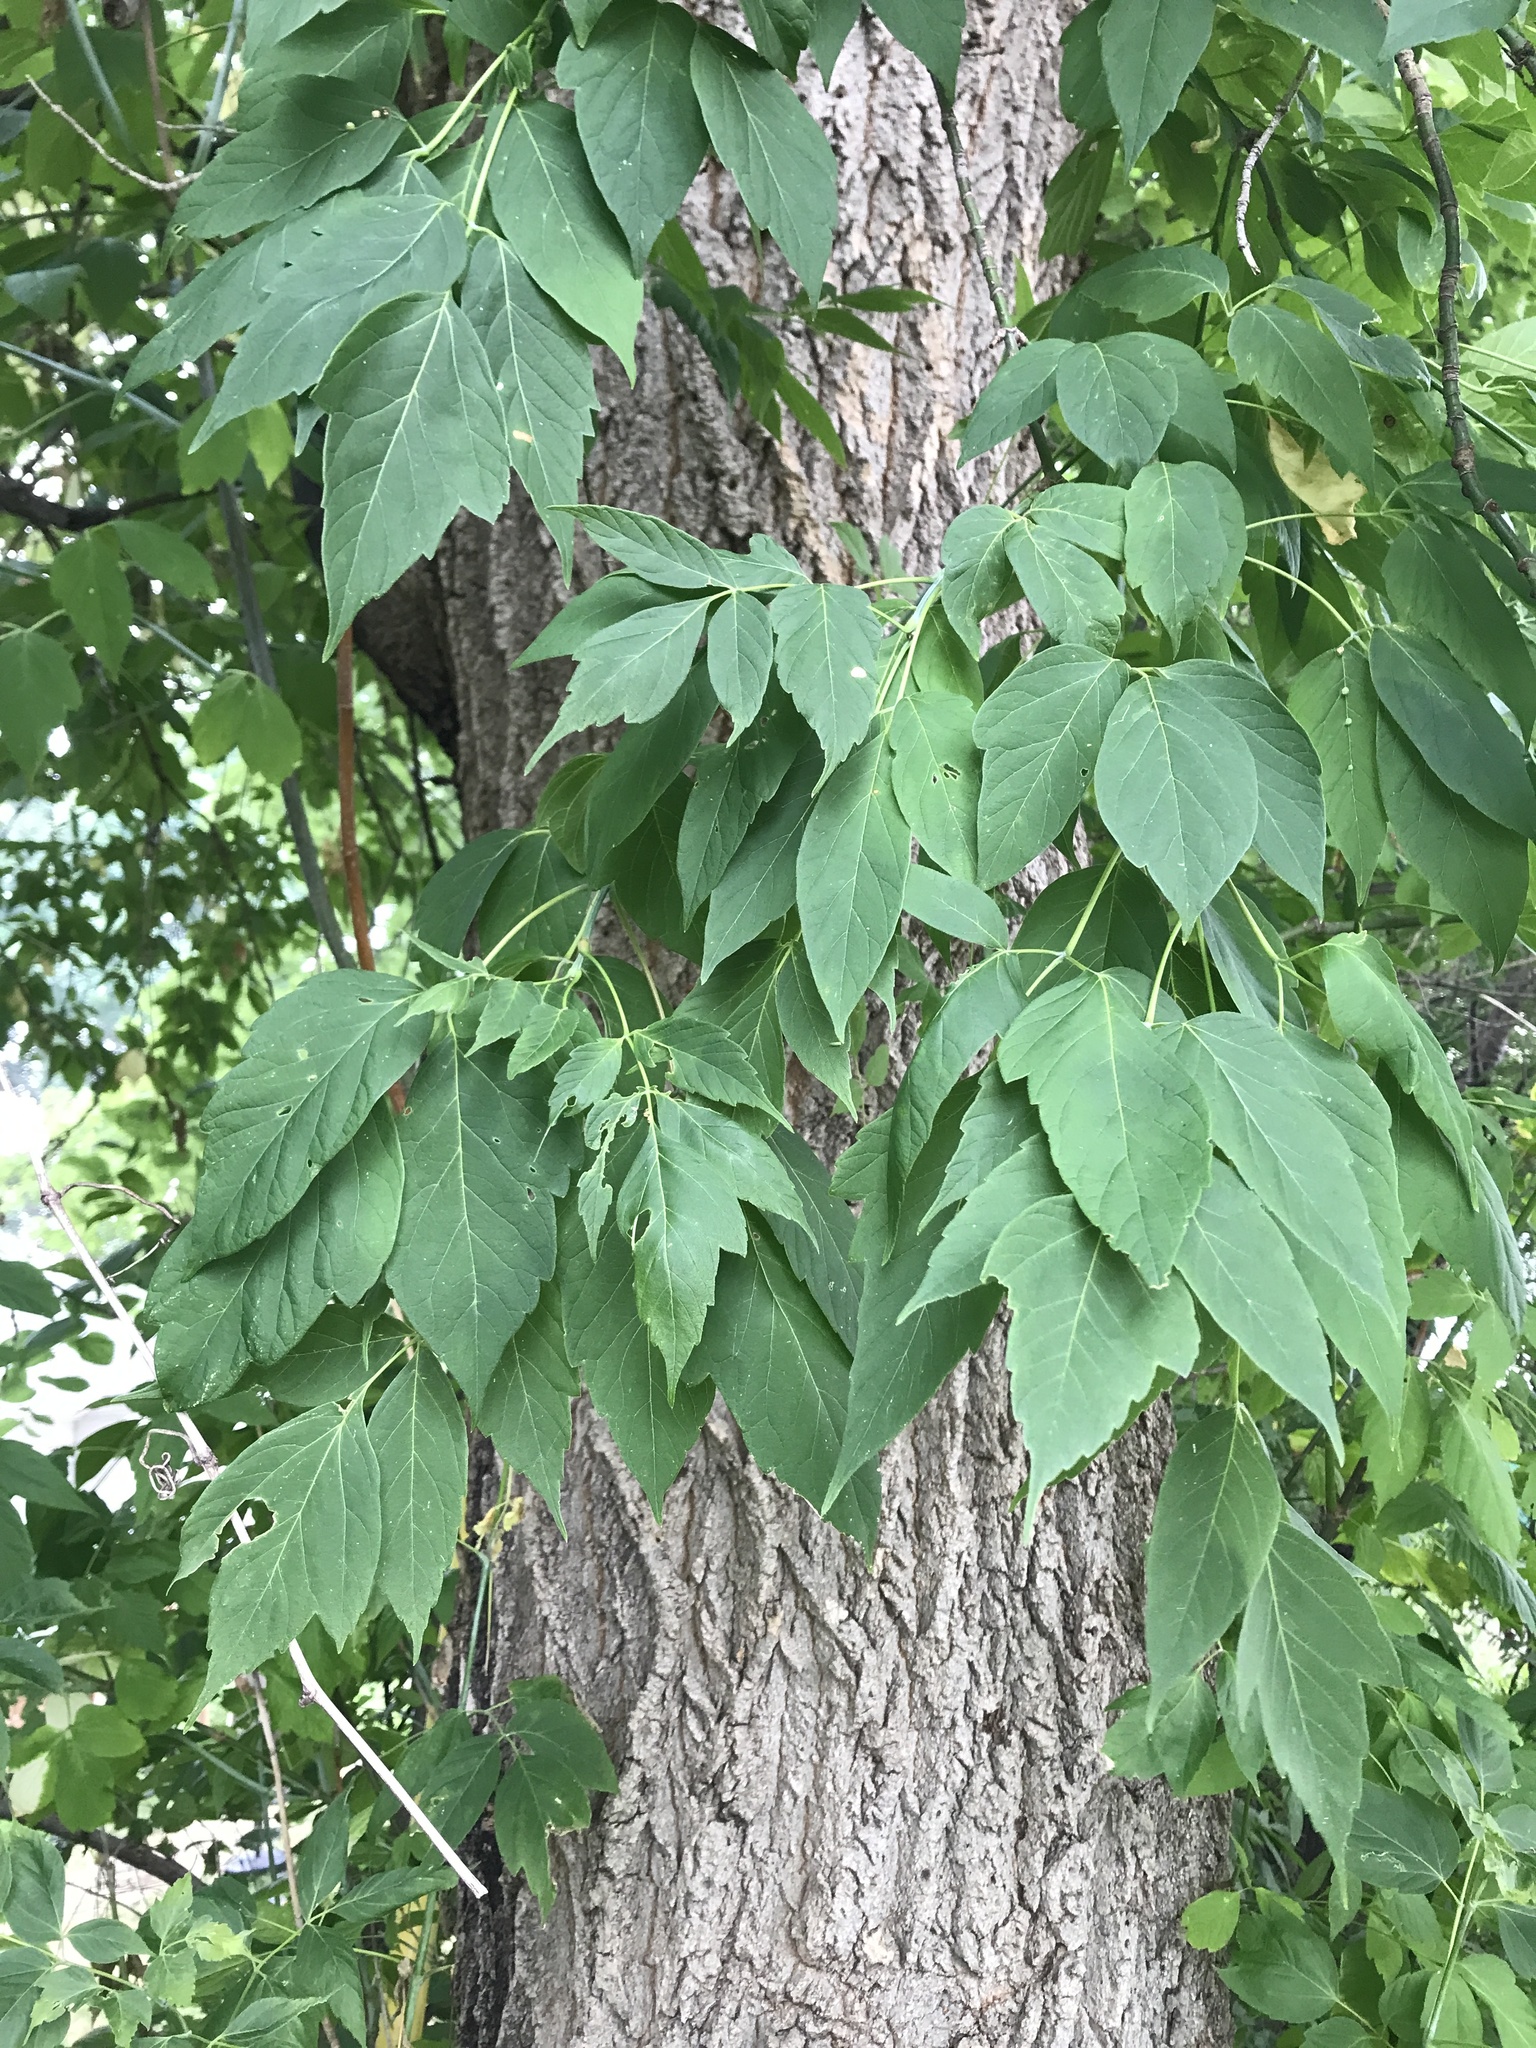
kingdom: Plantae
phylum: Tracheophyta
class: Magnoliopsida
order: Sapindales
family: Sapindaceae
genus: Acer
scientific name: Acer negundo
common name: Ashleaf maple
